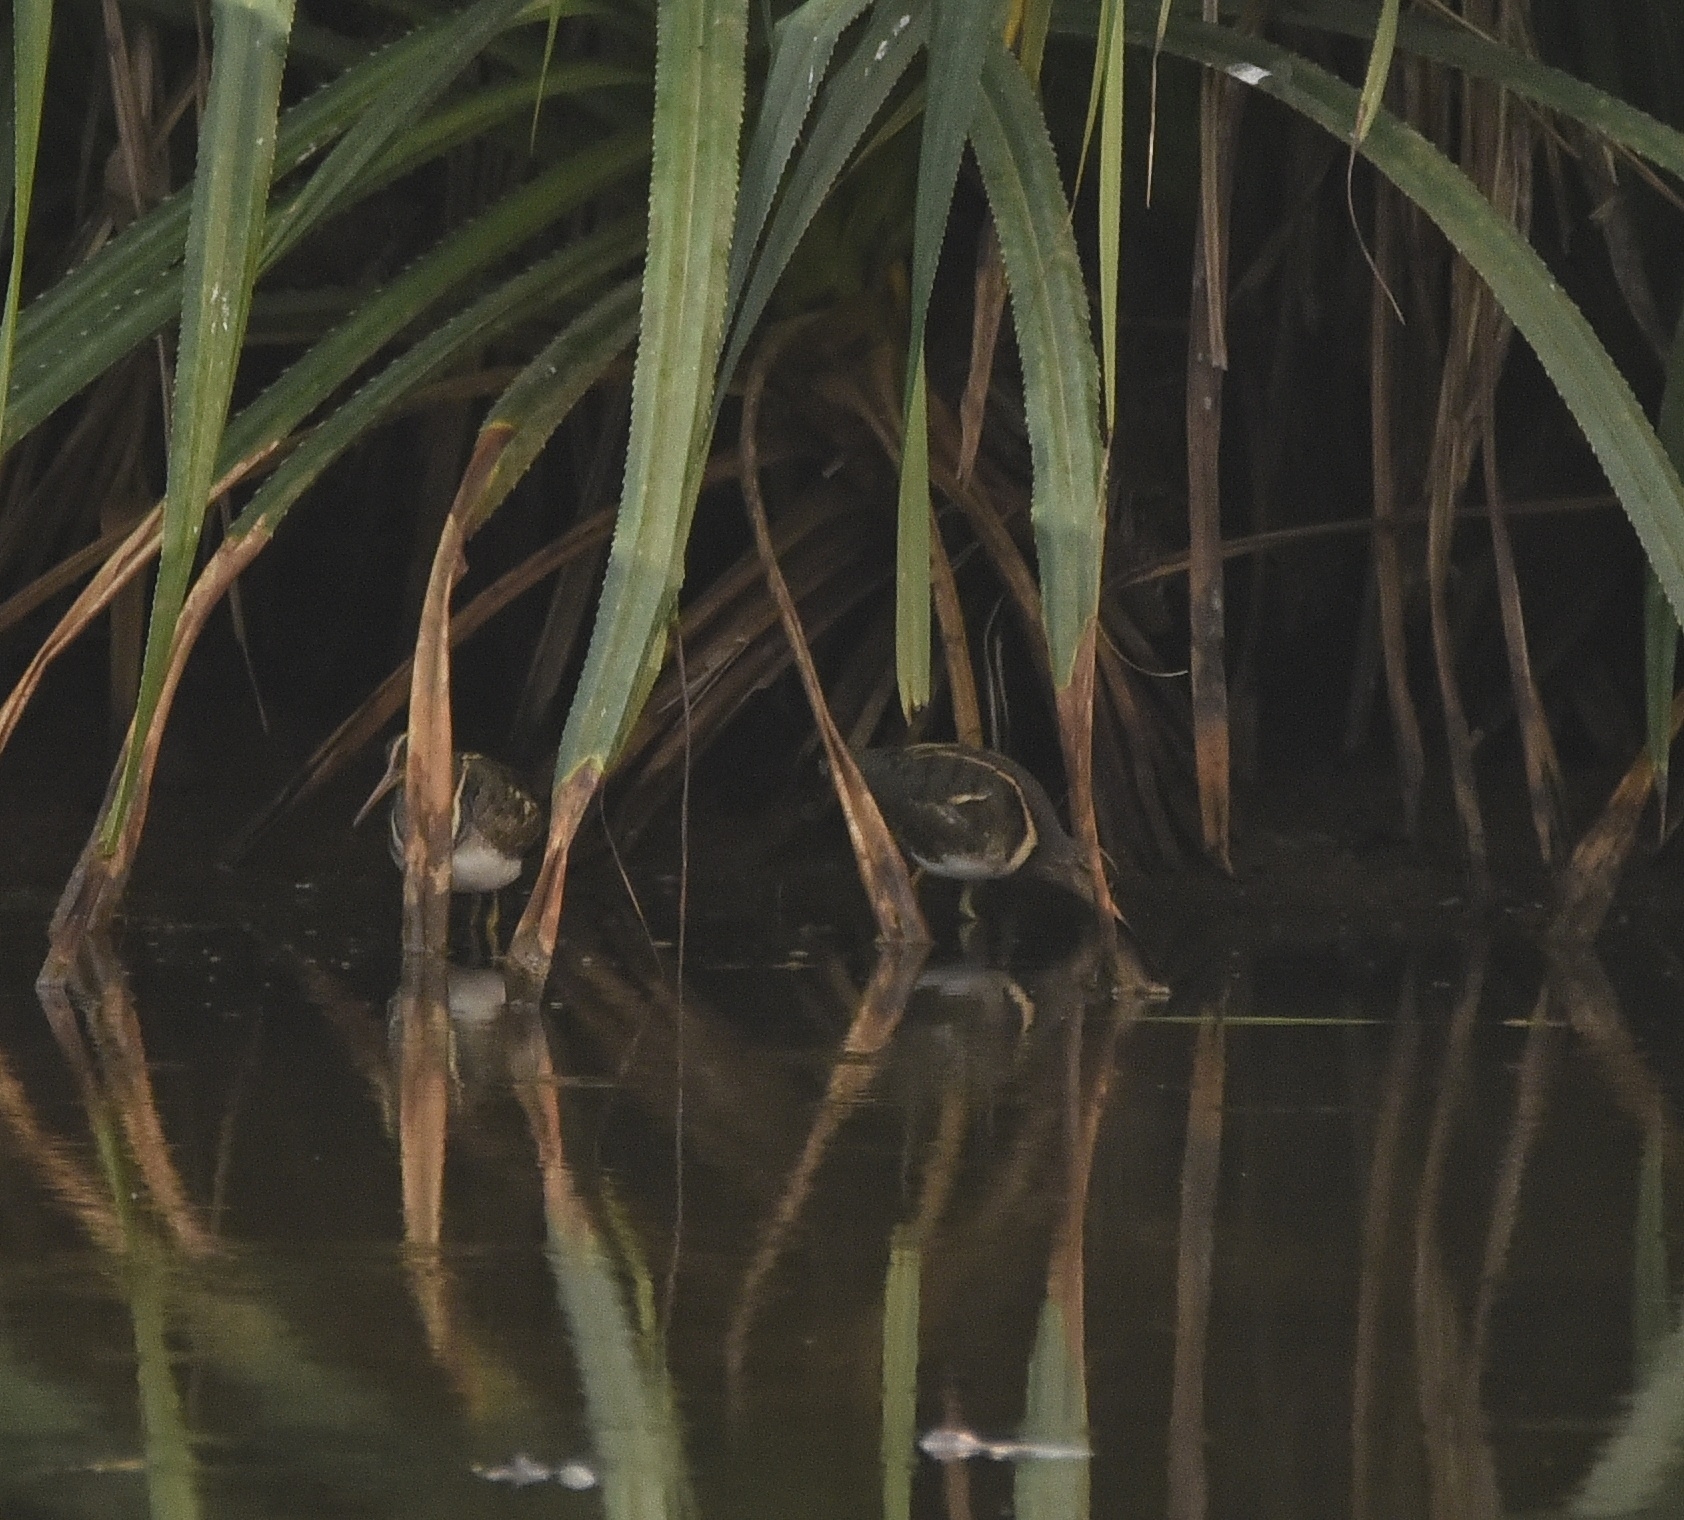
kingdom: Animalia
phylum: Chordata
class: Aves
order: Charadriiformes
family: Rostratulidae
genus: Rostratula
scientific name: Rostratula benghalensis
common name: Greater painted-snipe
